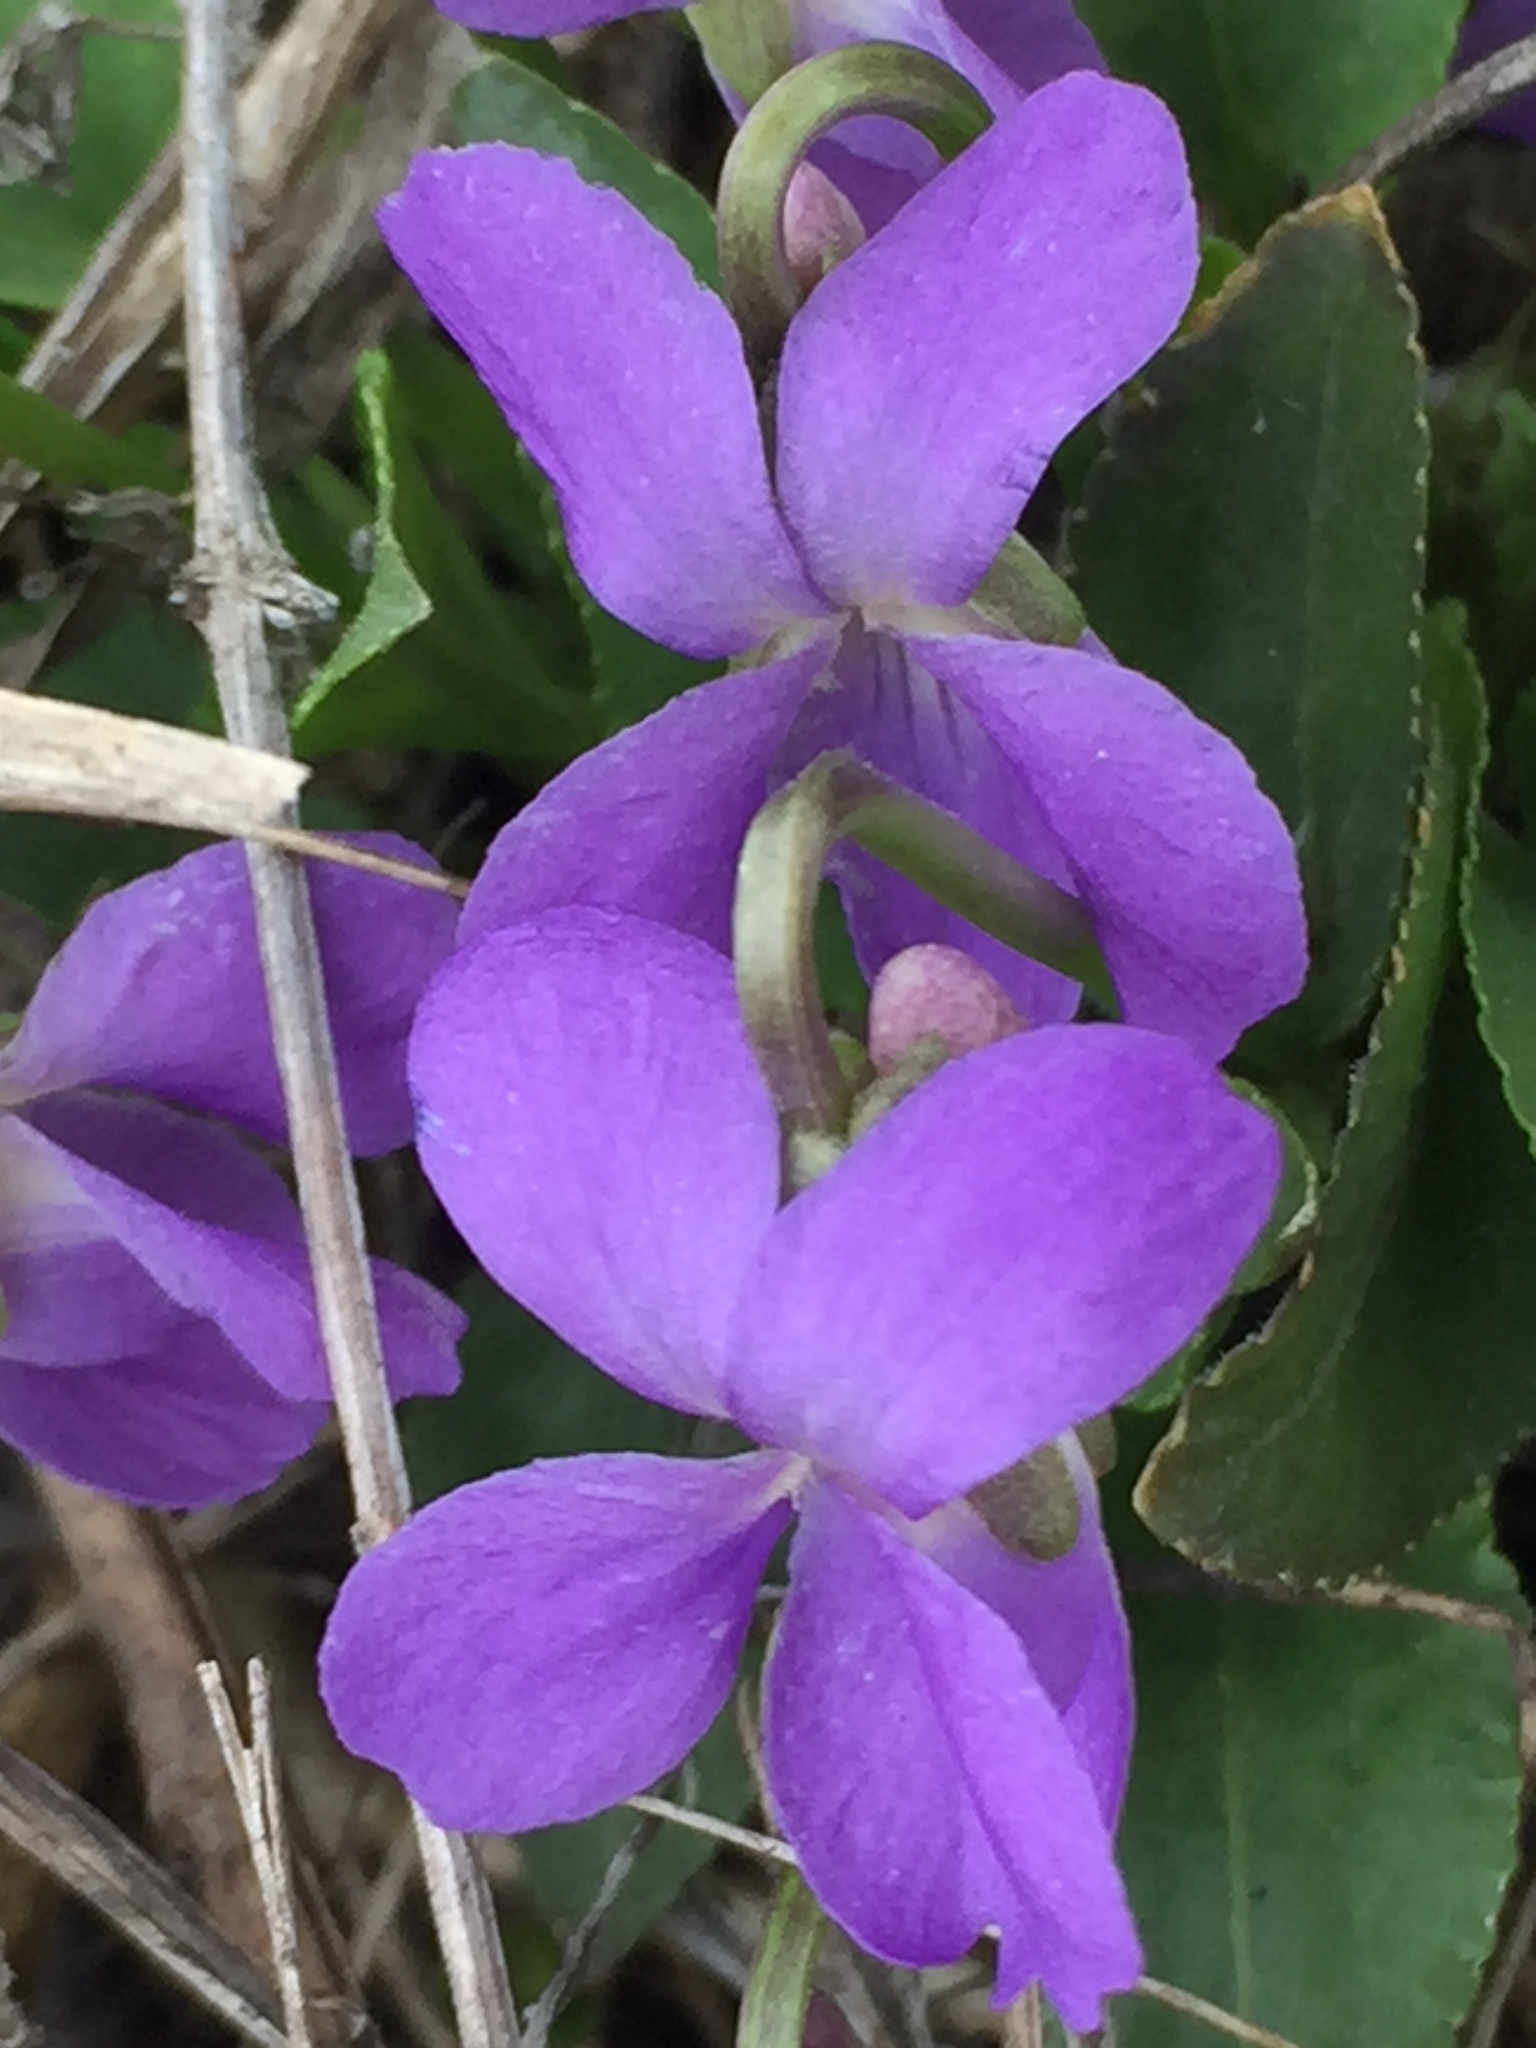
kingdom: Plantae
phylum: Tracheophyta
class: Magnoliopsida
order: Malpighiales
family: Violaceae
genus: Viola
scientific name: Viola ambigua
